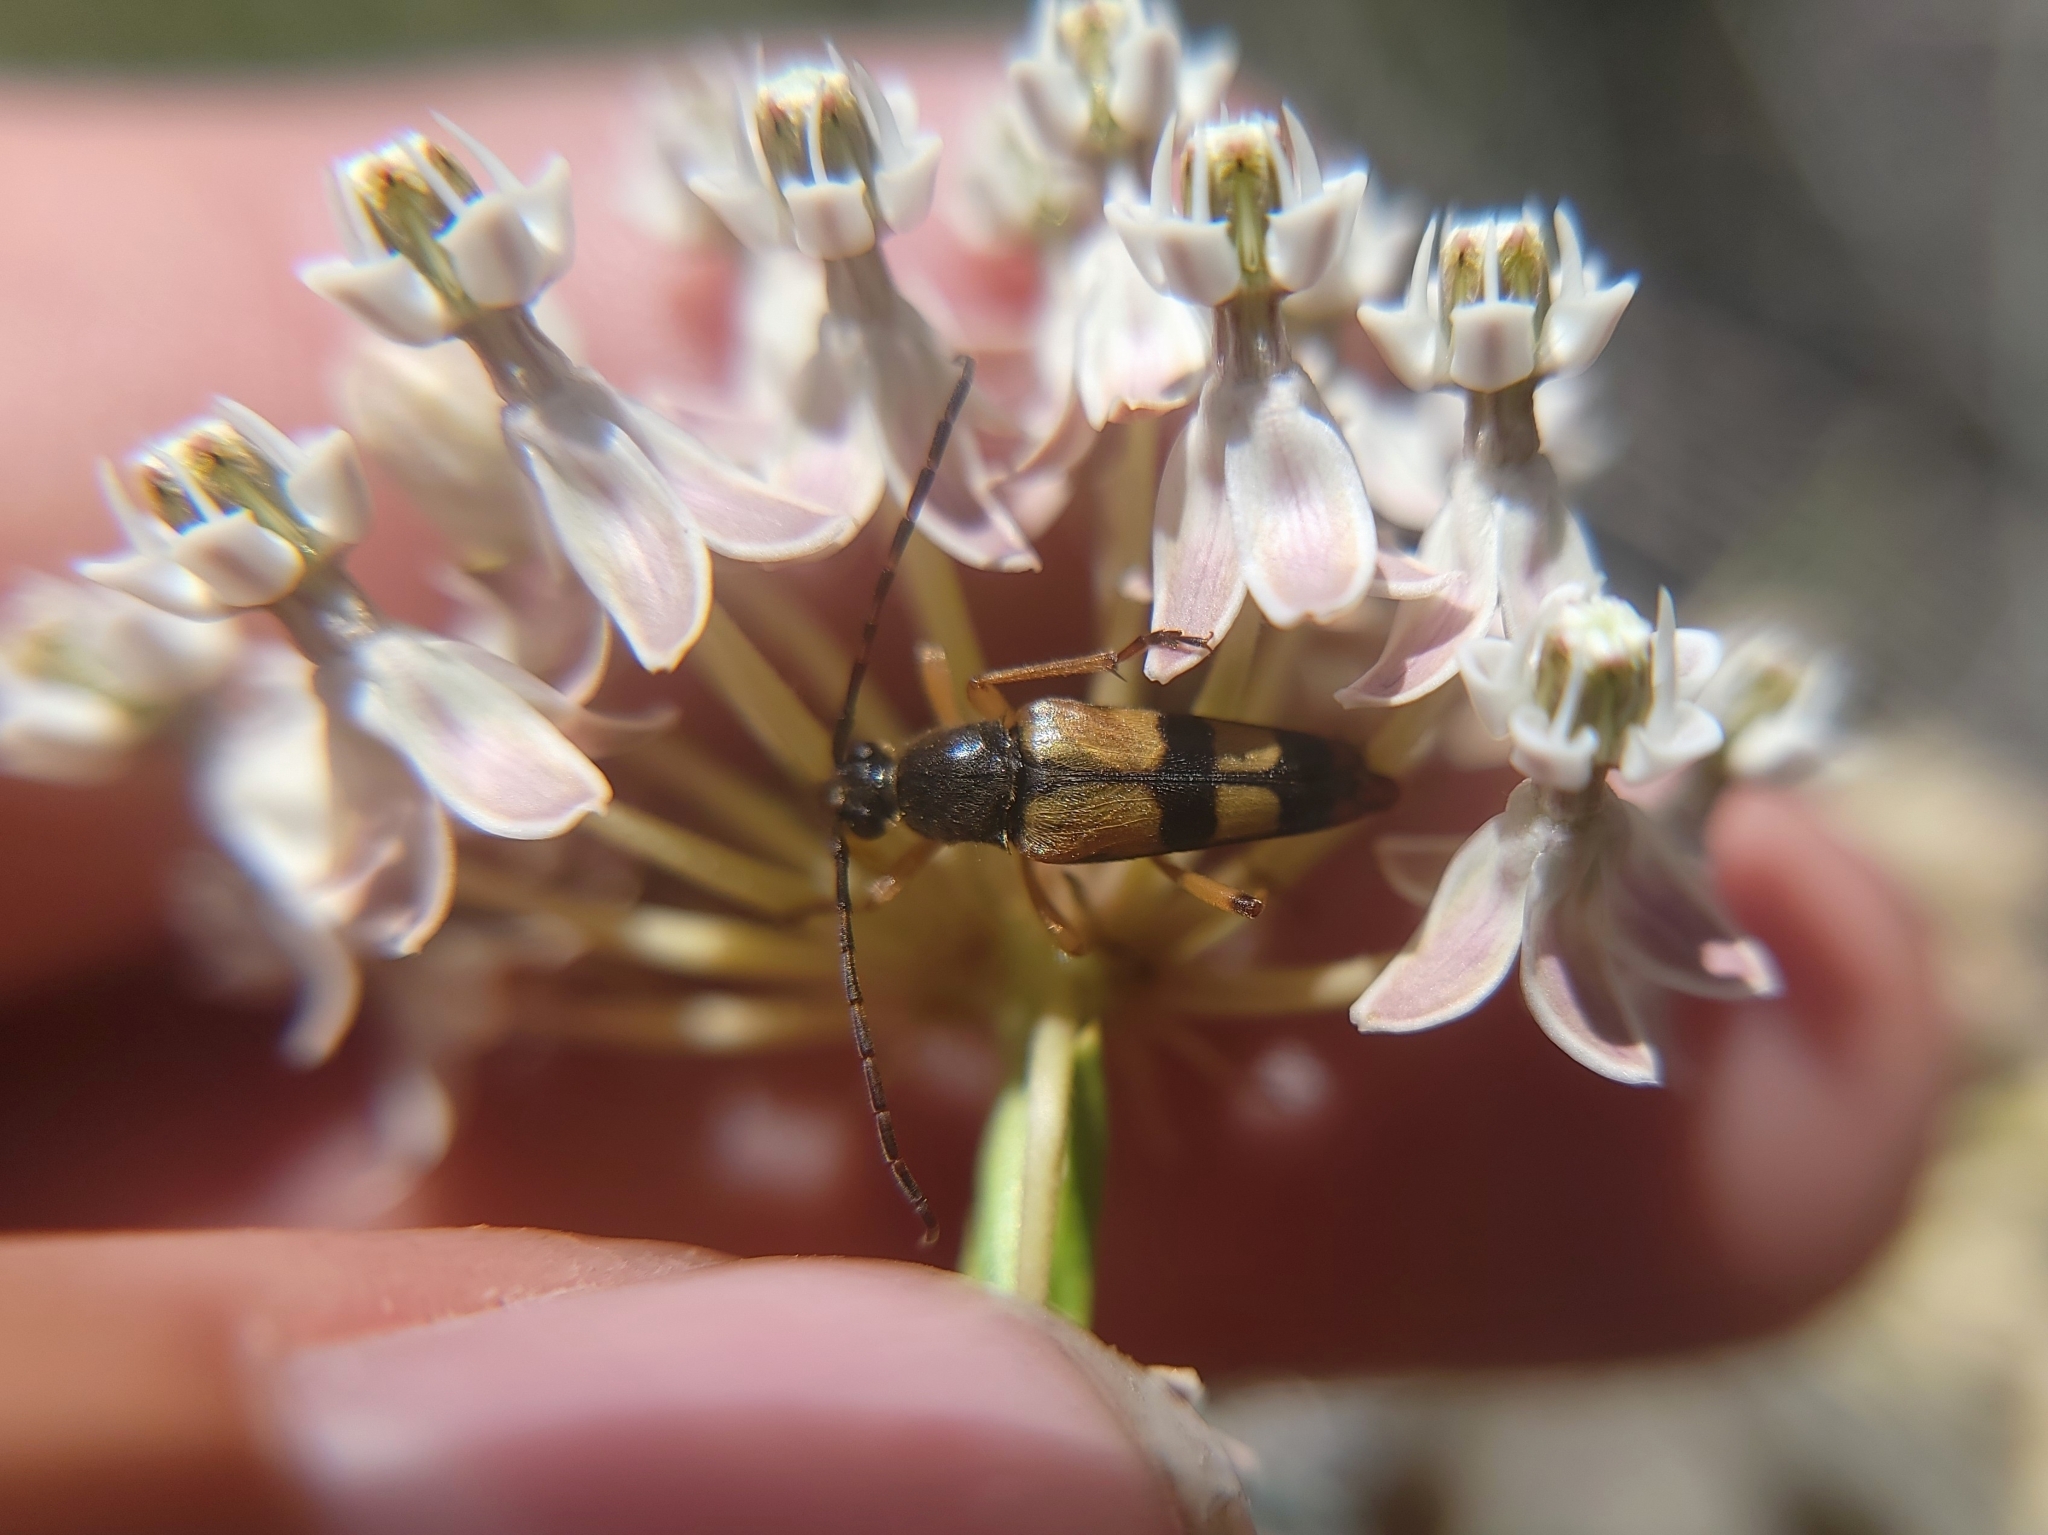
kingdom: Animalia
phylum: Arthropoda
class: Insecta
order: Coleoptera
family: Cerambycidae
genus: Leptura
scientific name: Leptura hovorei
